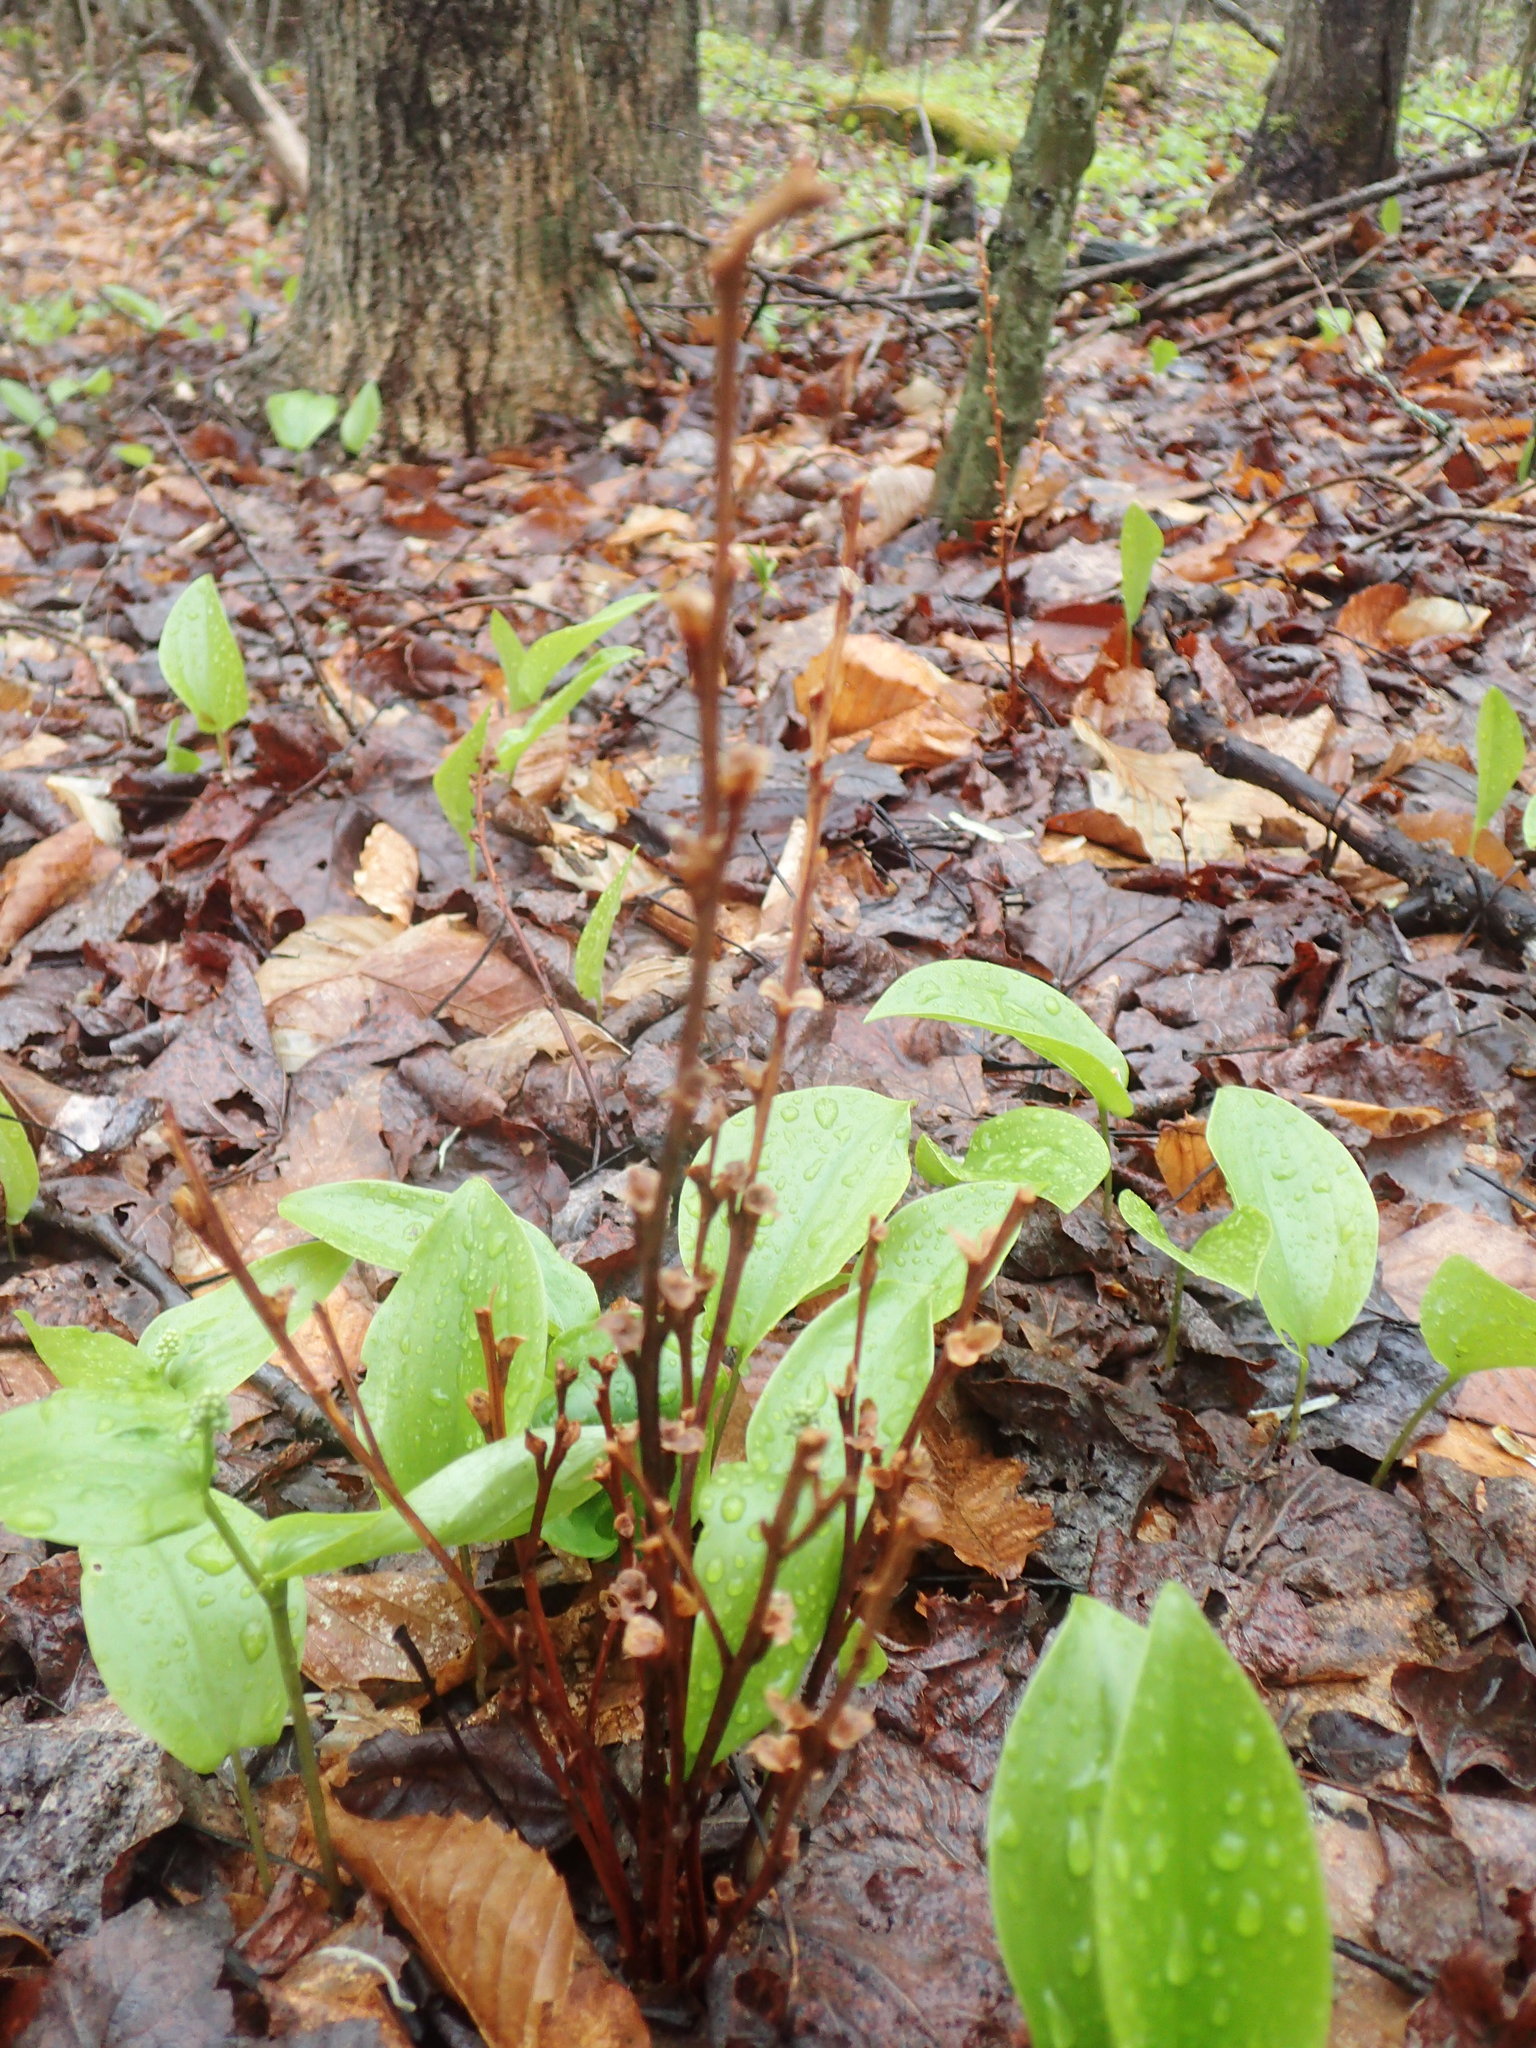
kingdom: Plantae
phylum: Tracheophyta
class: Magnoliopsida
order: Lamiales
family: Orobanchaceae
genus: Epifagus
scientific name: Epifagus virginiana
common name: Beechdrops
